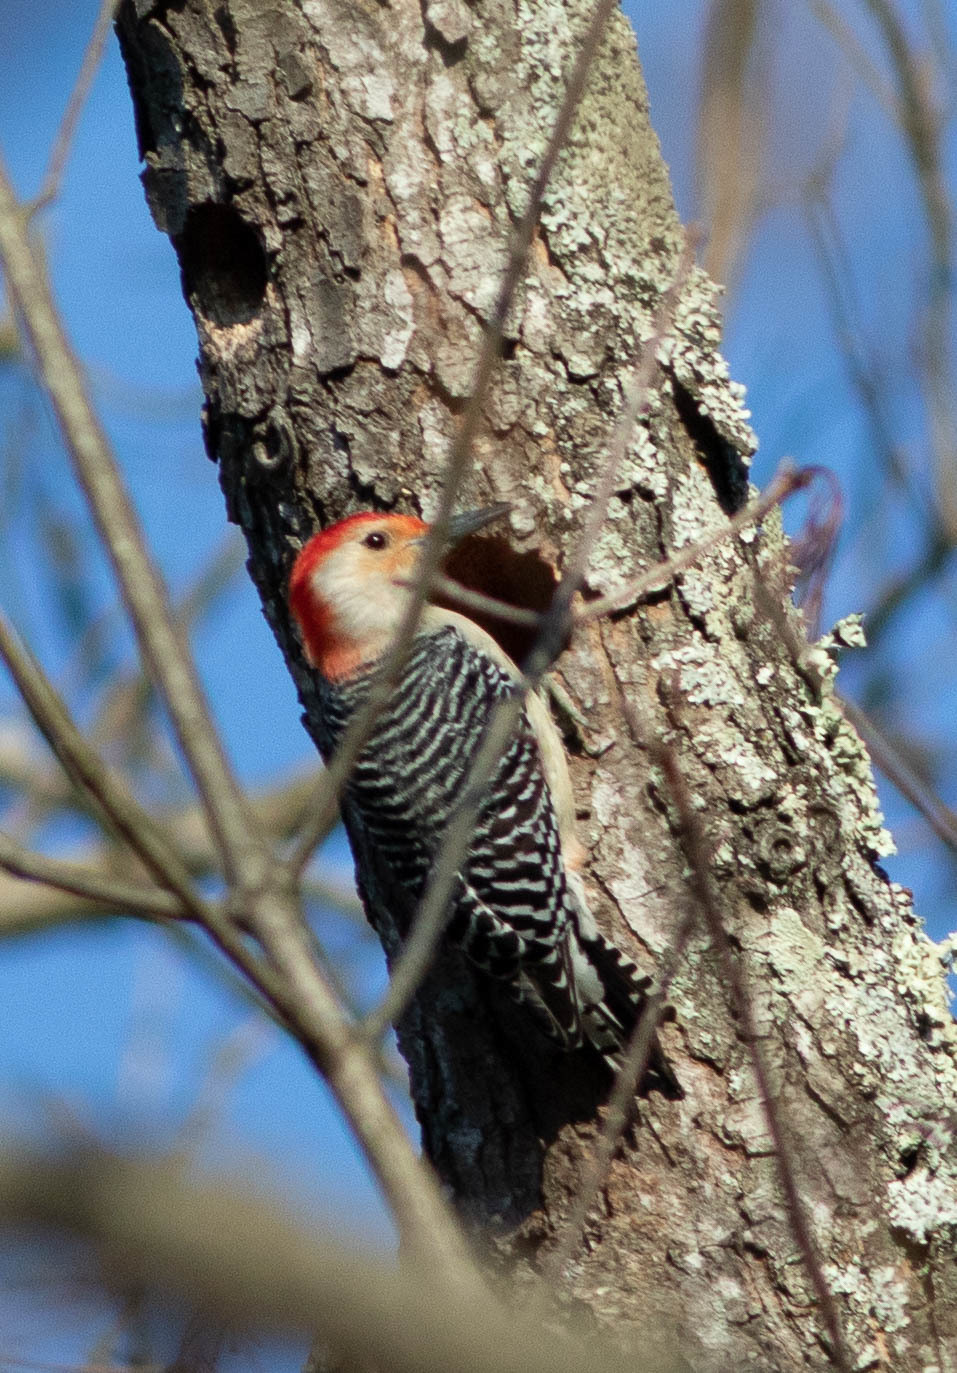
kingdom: Animalia
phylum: Chordata
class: Aves
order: Piciformes
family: Picidae
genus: Melanerpes
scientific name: Melanerpes carolinus
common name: Red-bellied woodpecker
